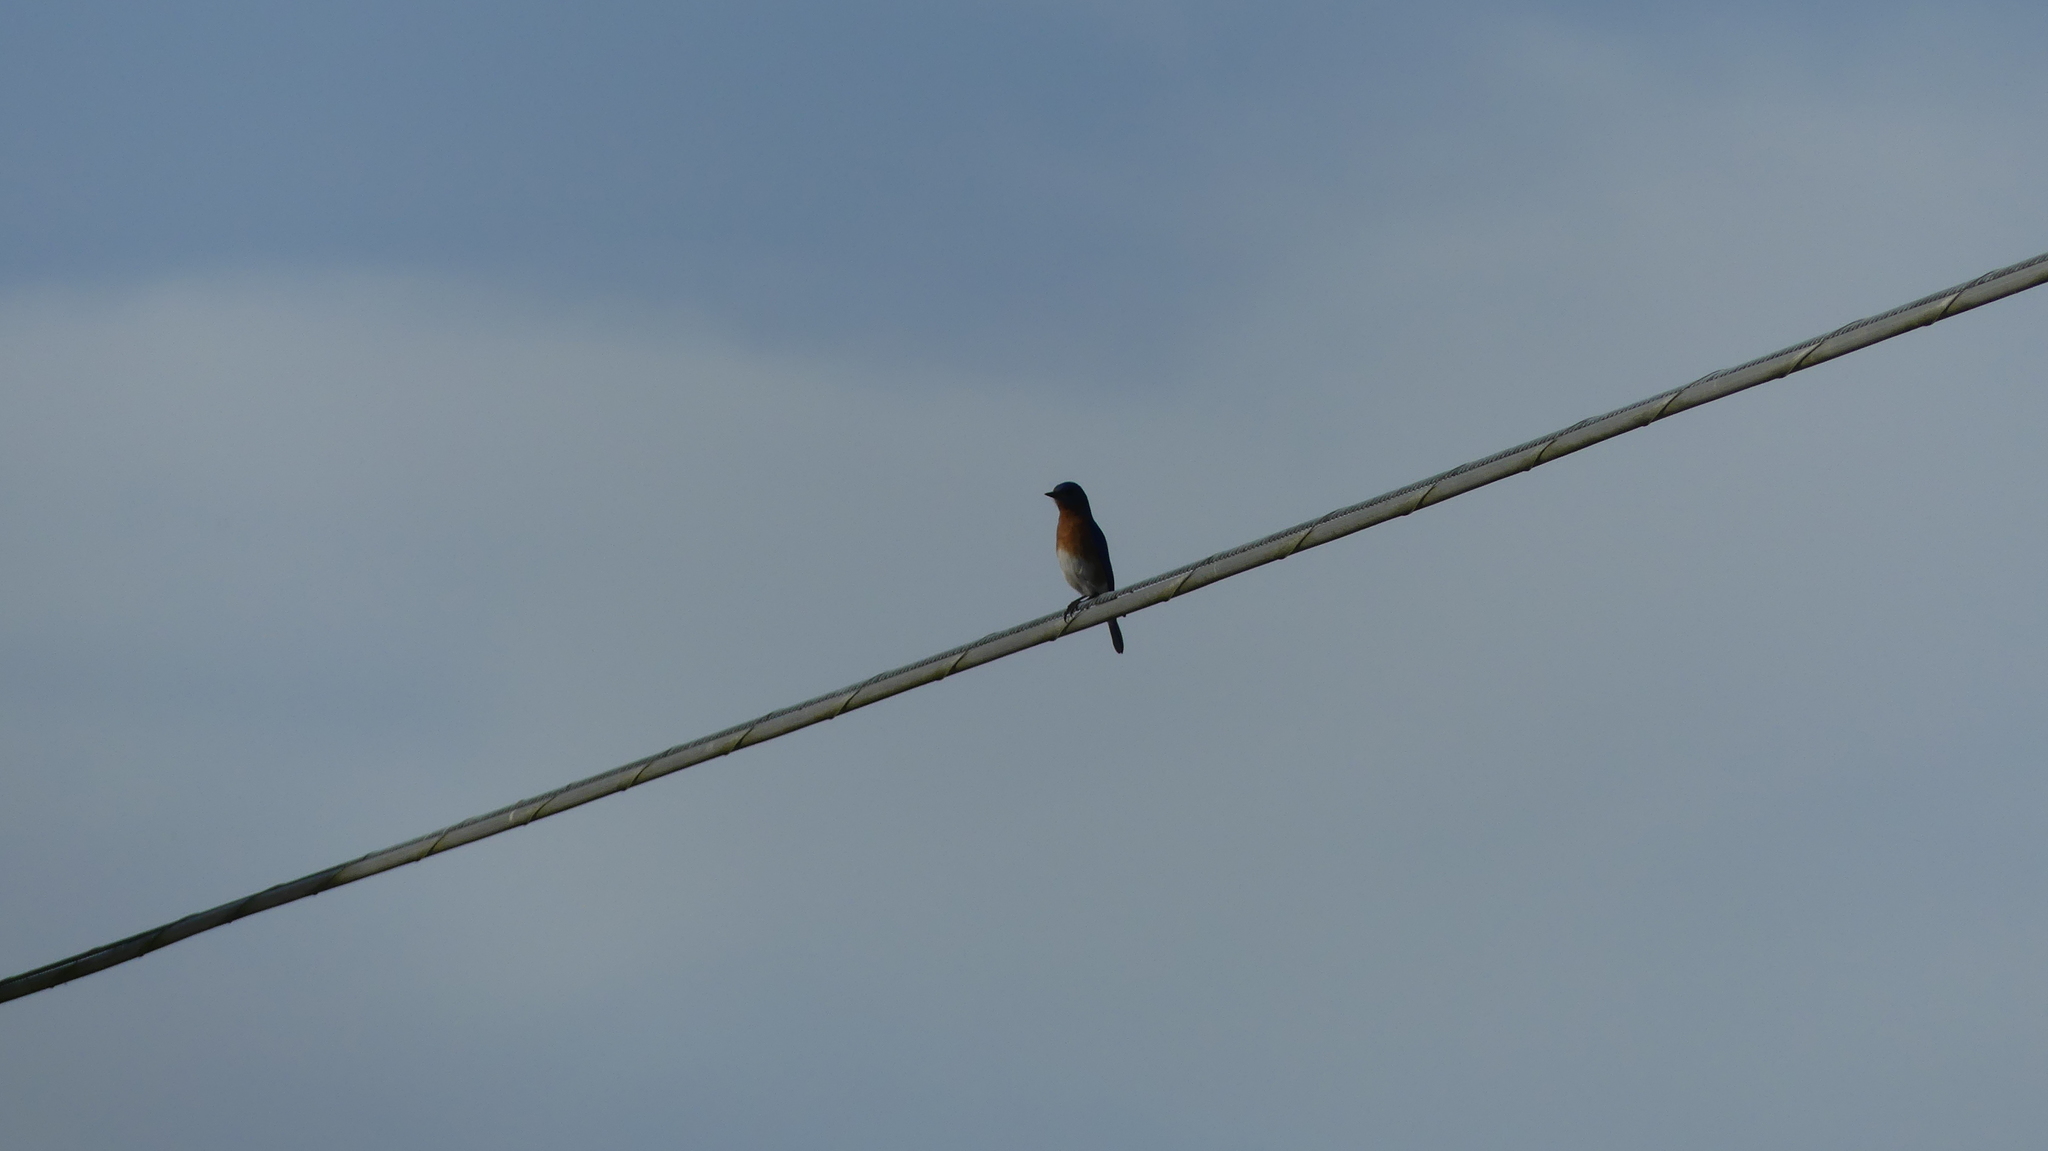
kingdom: Animalia
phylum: Chordata
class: Aves
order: Passeriformes
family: Turdidae
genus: Sialia
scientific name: Sialia sialis
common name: Eastern bluebird
